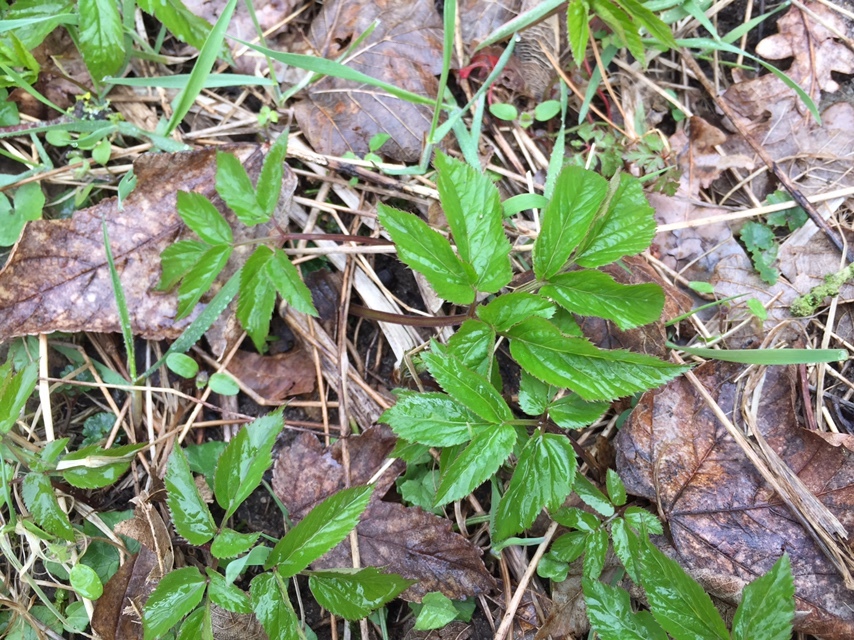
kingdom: Plantae
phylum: Tracheophyta
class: Magnoliopsida
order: Apiales
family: Apiaceae
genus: Aegopodium
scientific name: Aegopodium podagraria
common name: Ground-elder
